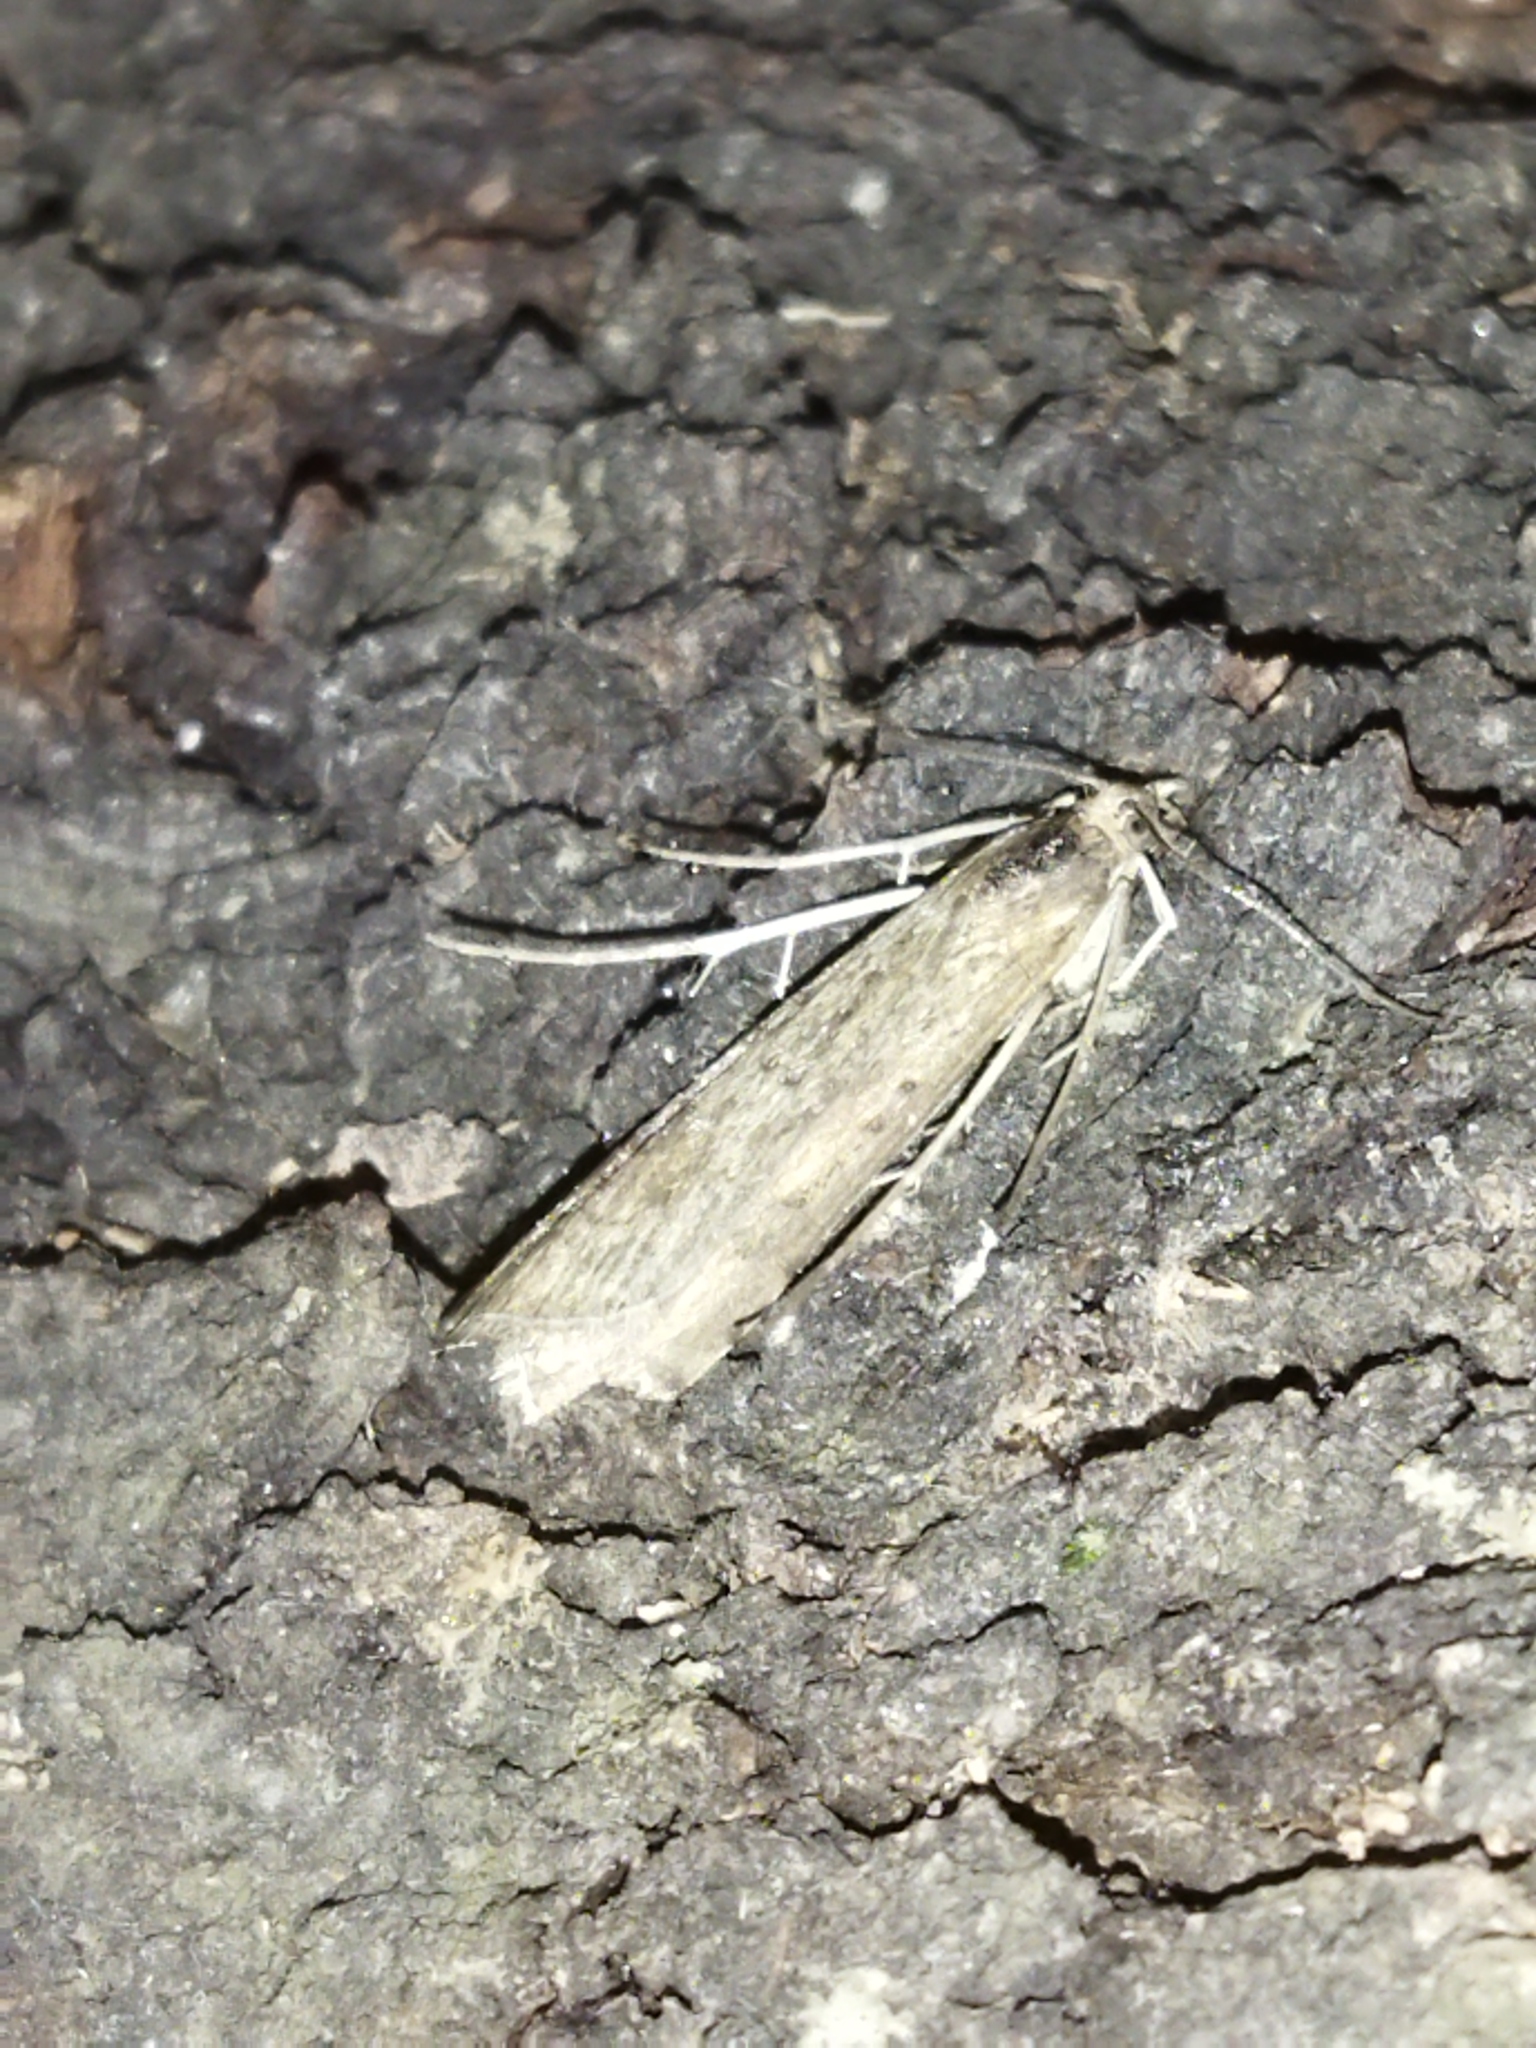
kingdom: Animalia
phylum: Arthropoda
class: Insecta
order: Lepidoptera
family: Crambidae
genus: Nomophila
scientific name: Nomophila noctuella
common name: Rush veneer
